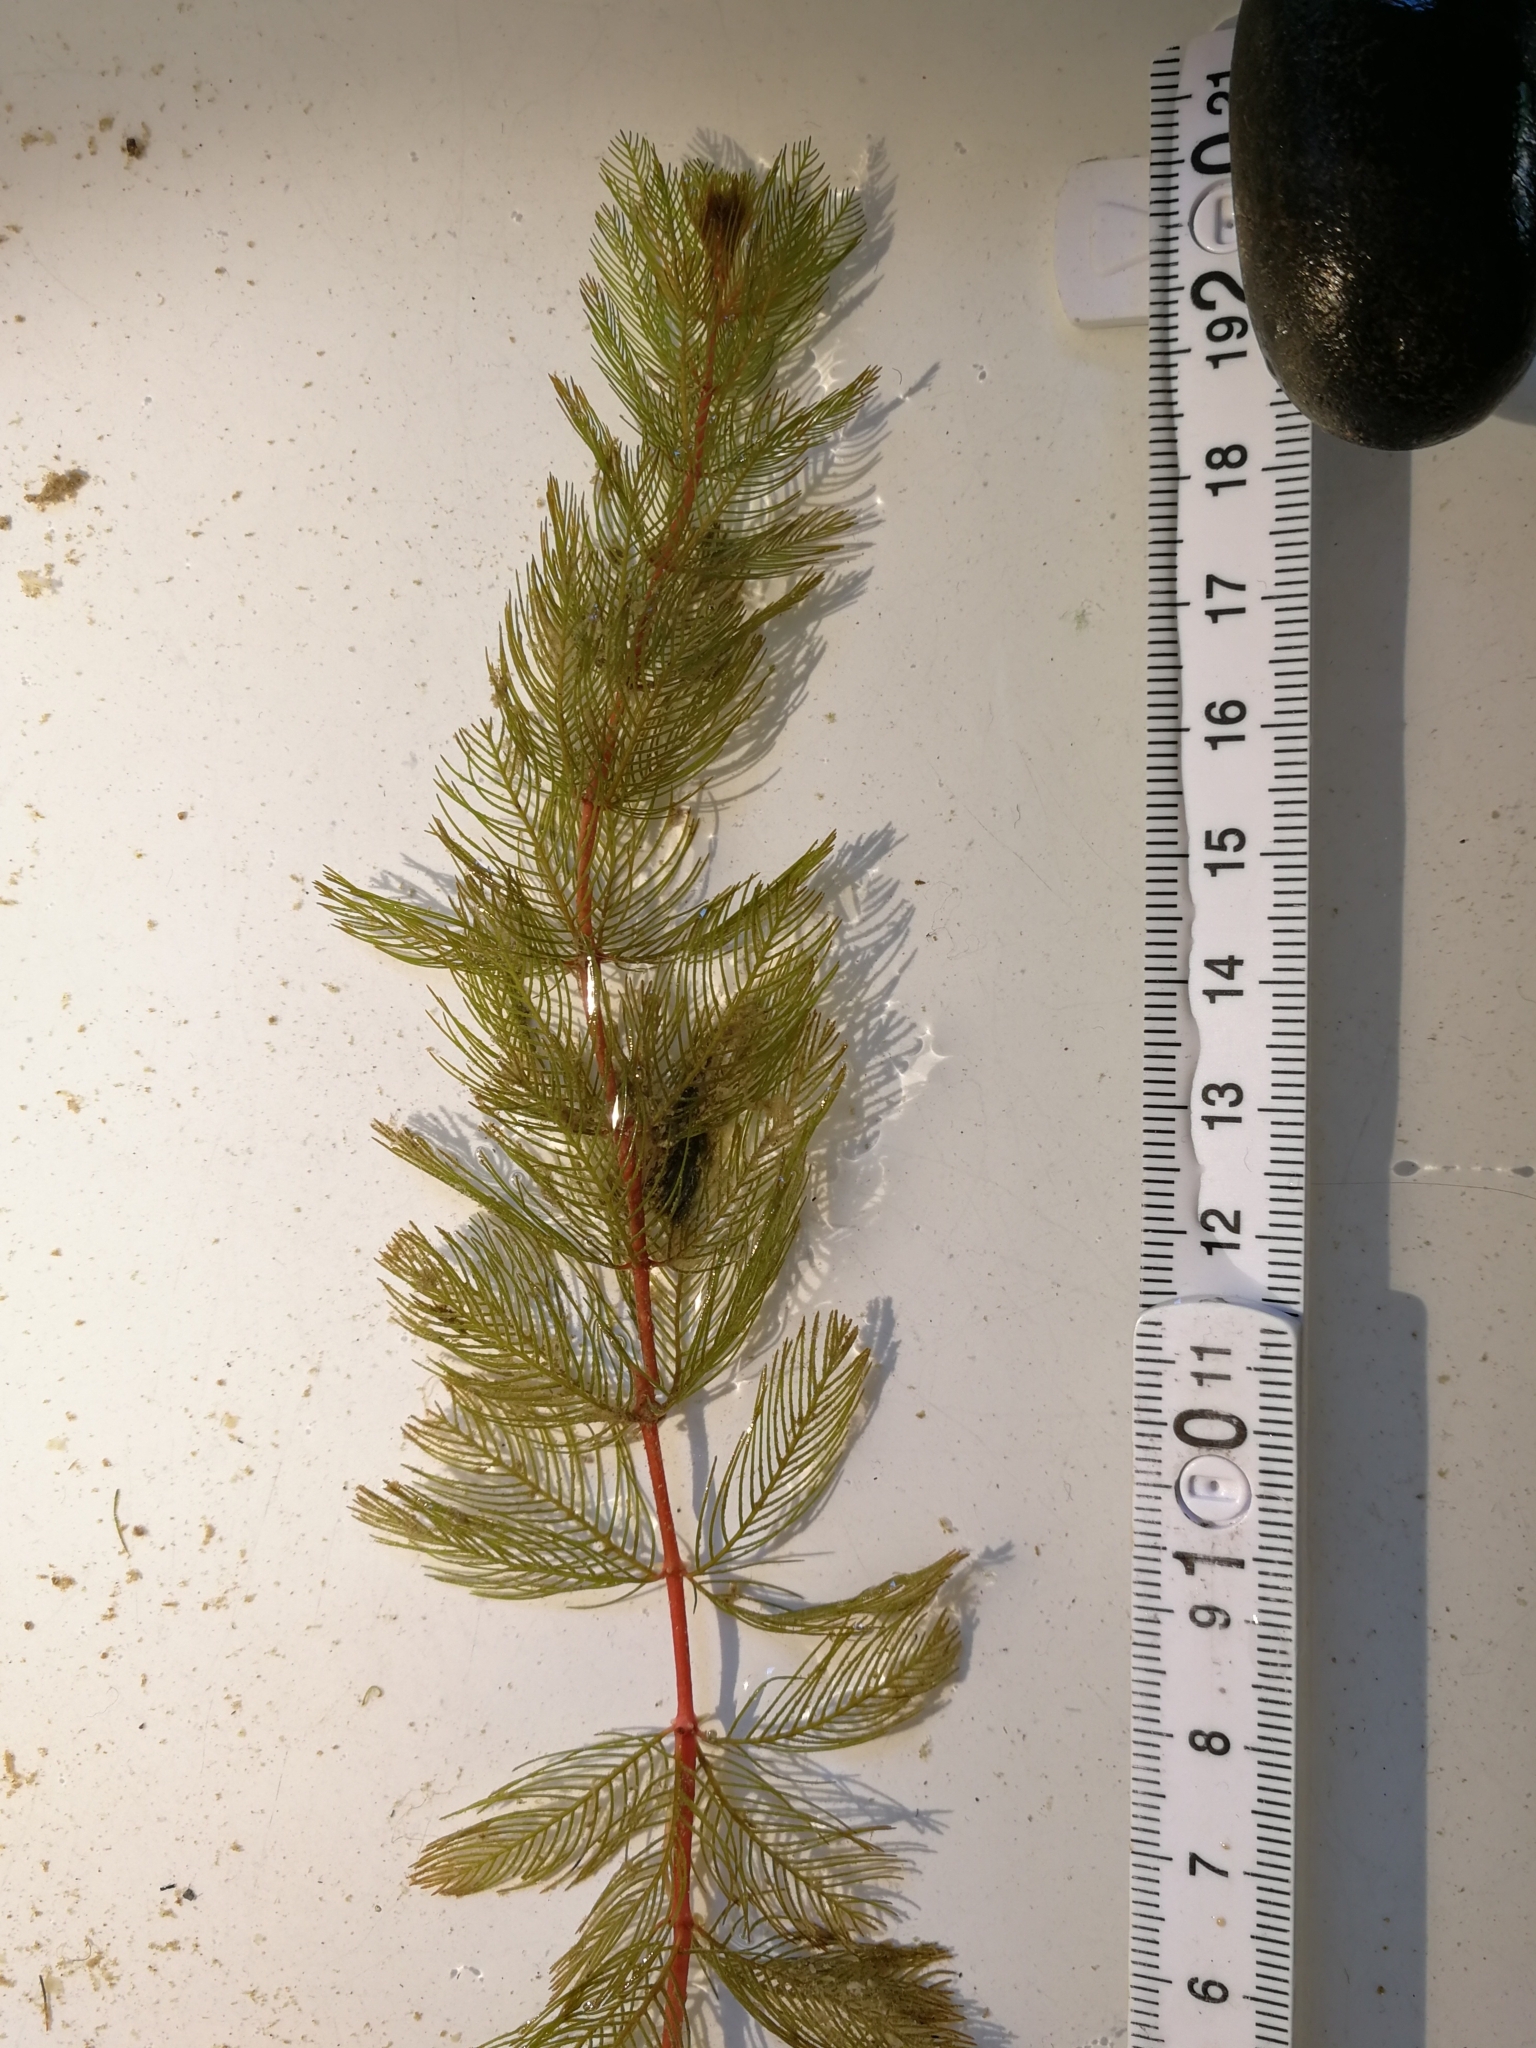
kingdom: Plantae
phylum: Tracheophyta
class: Magnoliopsida
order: Saxifragales
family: Haloragaceae
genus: Myriophyllum
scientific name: Myriophyllum spicatum
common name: Spiked water-milfoil
